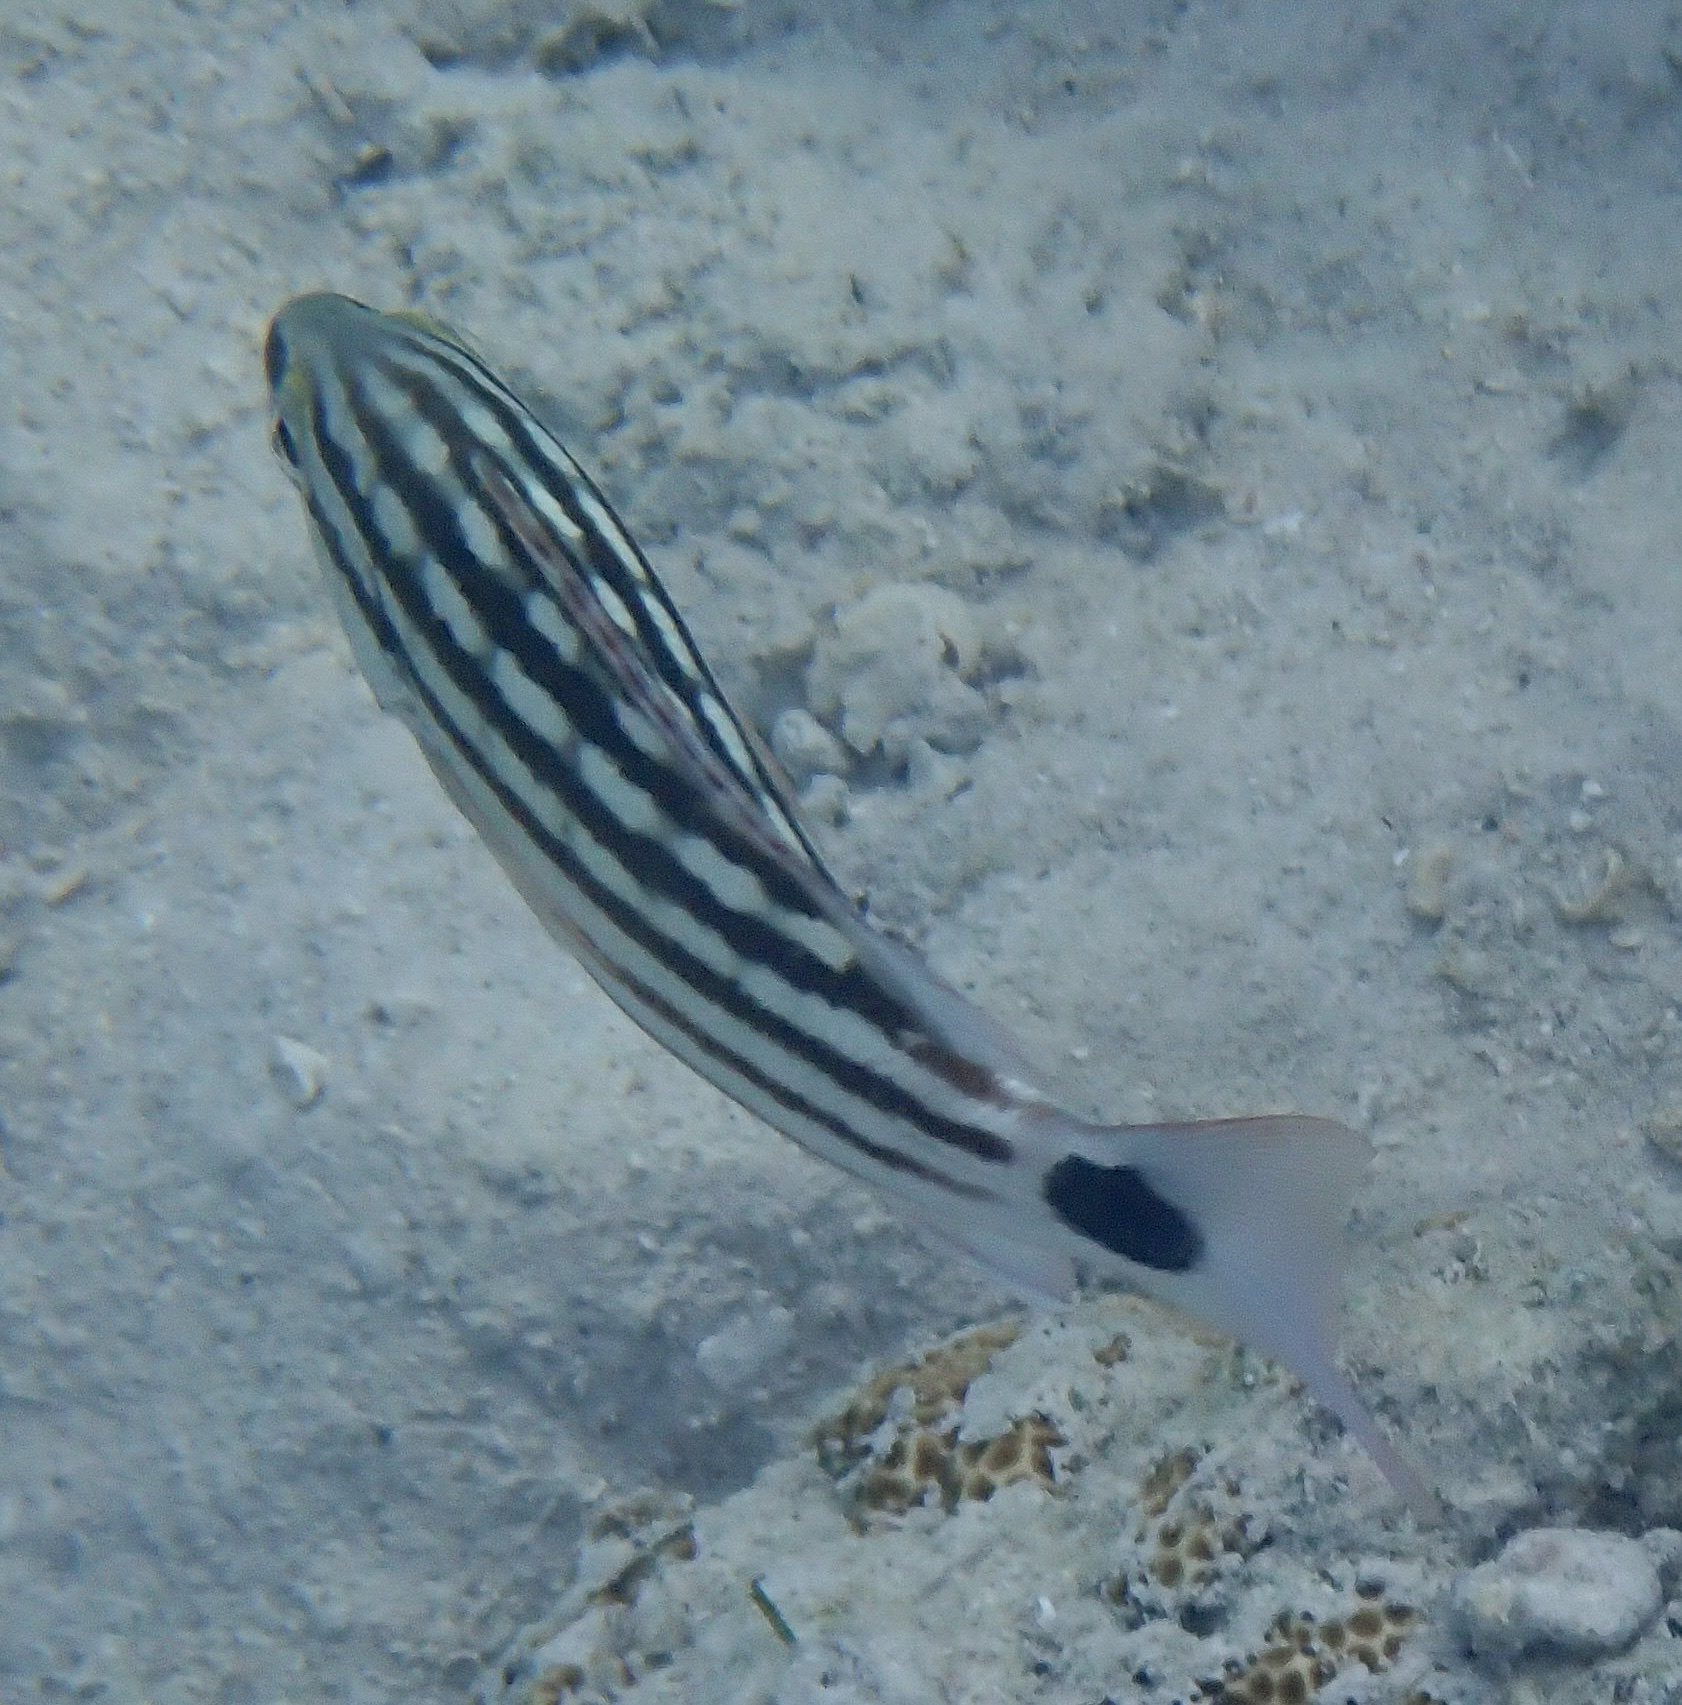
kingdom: Animalia
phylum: Chordata
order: Perciformes
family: Lutjanidae
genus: Lutjanus
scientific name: Lutjanus decussatus
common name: Checkered snapper
